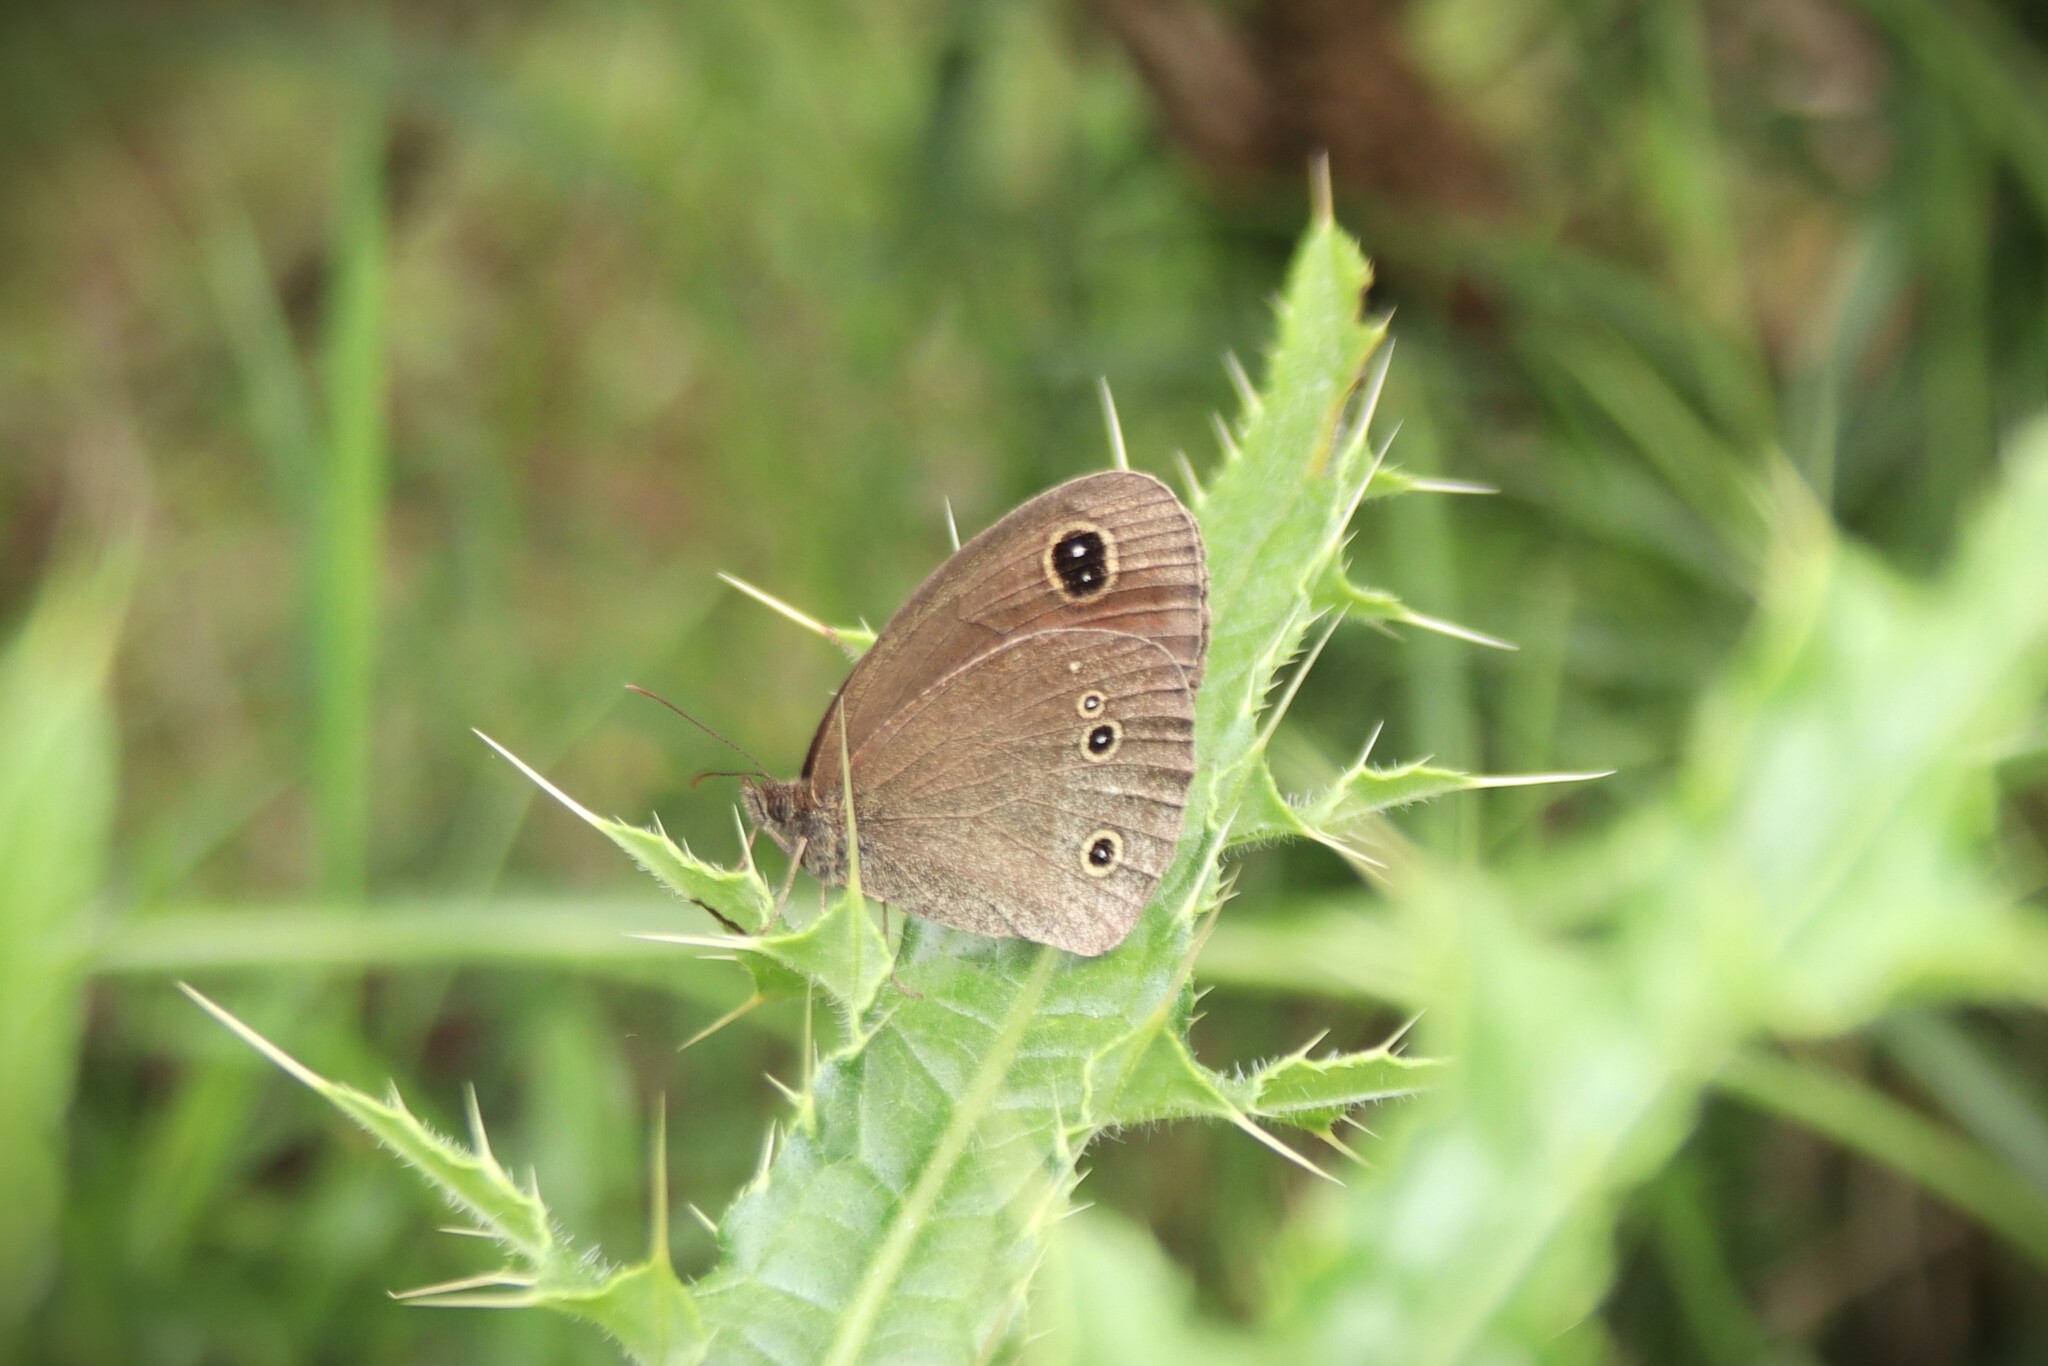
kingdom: Animalia
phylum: Arthropoda
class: Insecta
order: Lepidoptera
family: Nymphalidae
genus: Callerebia
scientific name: Callerebia nirmala
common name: Common argus
